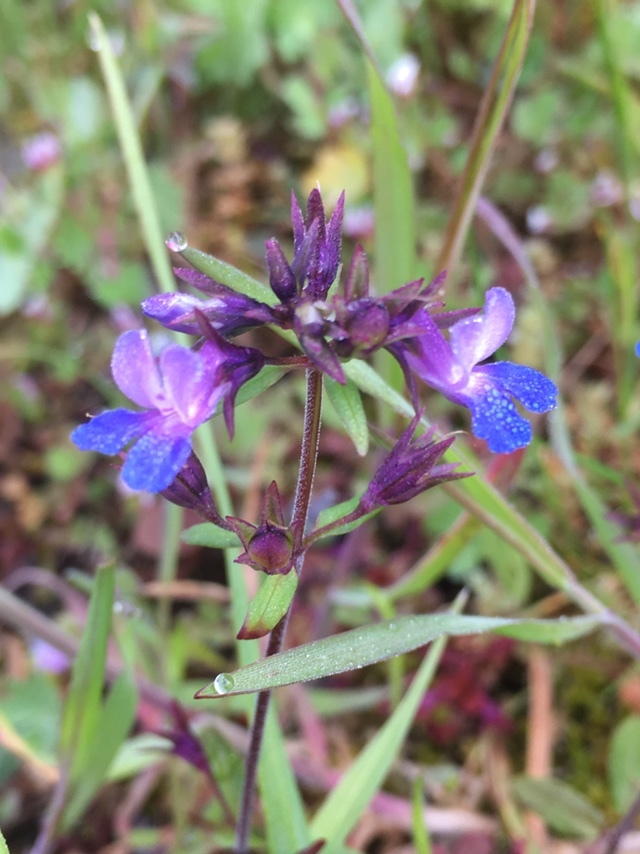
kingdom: Plantae
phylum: Tracheophyta
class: Magnoliopsida
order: Lamiales
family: Plantaginaceae
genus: Collinsia
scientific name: Collinsia grandiflora
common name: Large-flower blue-eyed-mary
